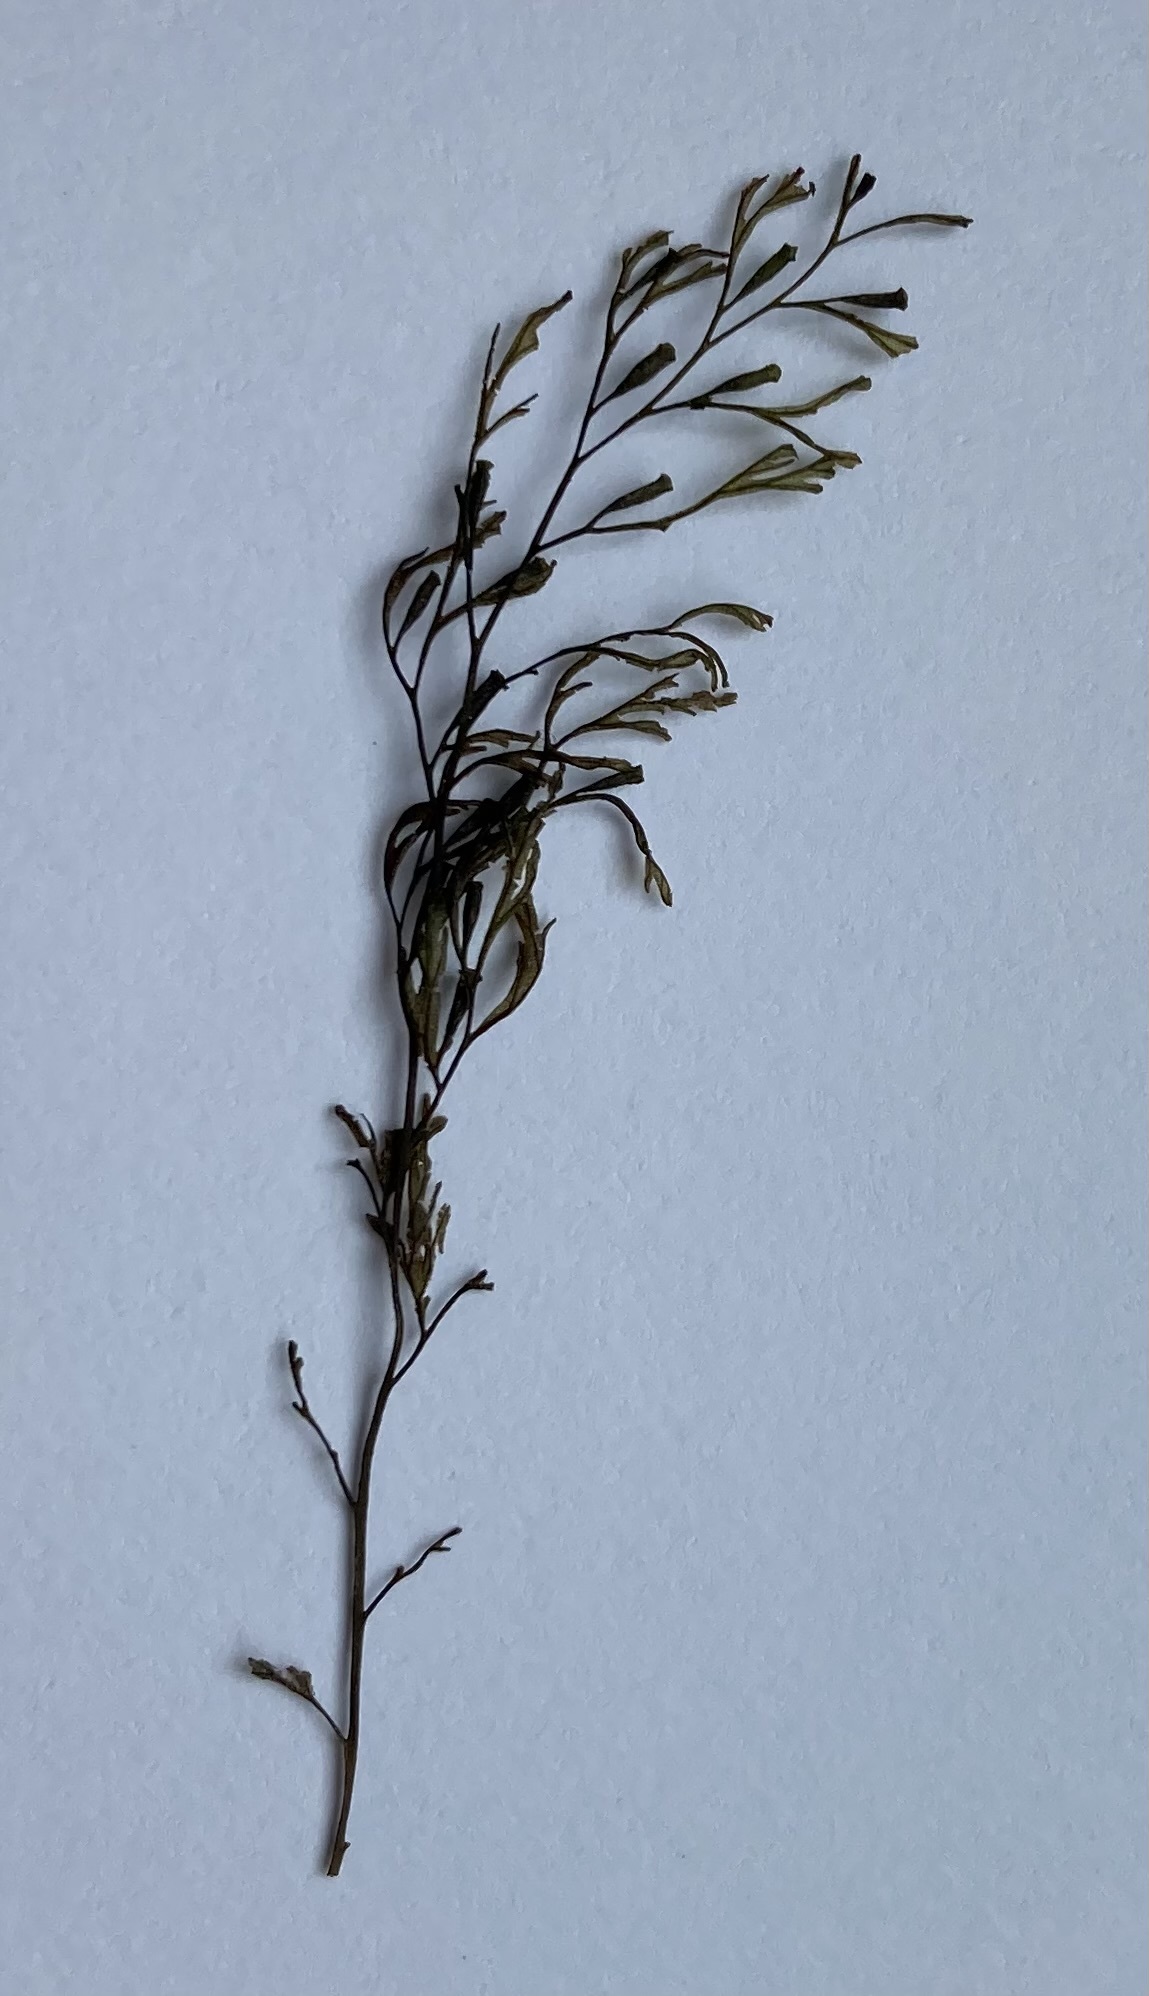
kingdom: Plantae
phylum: Tracheophyta
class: Polypodiopsida
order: Hymenophyllales
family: Hymenophyllaceae
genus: Polyphlebium
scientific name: Polyphlebium colensoi
